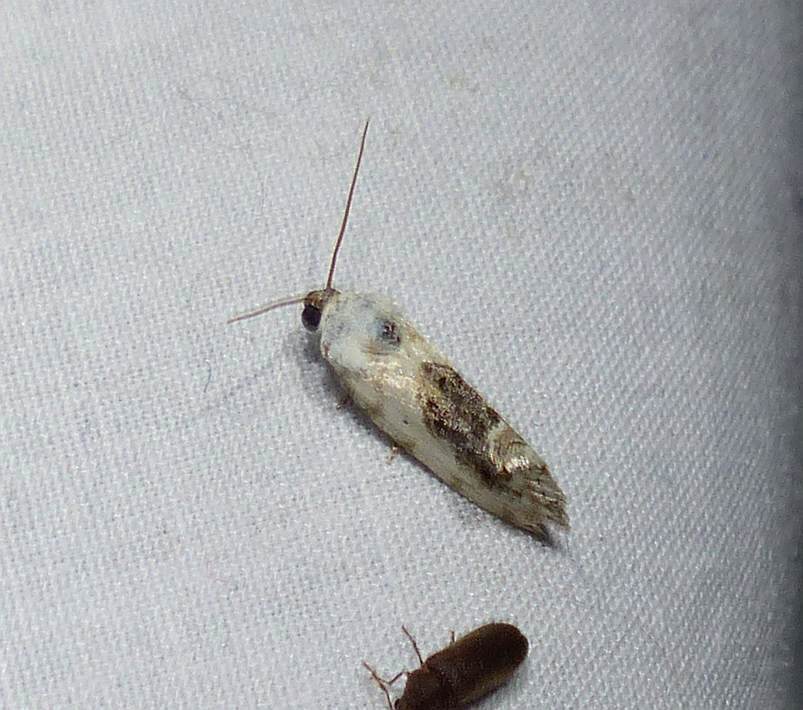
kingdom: Animalia
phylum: Arthropoda
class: Insecta
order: Lepidoptera
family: Noctuidae
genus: Acontia
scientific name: Acontia erastrioides
